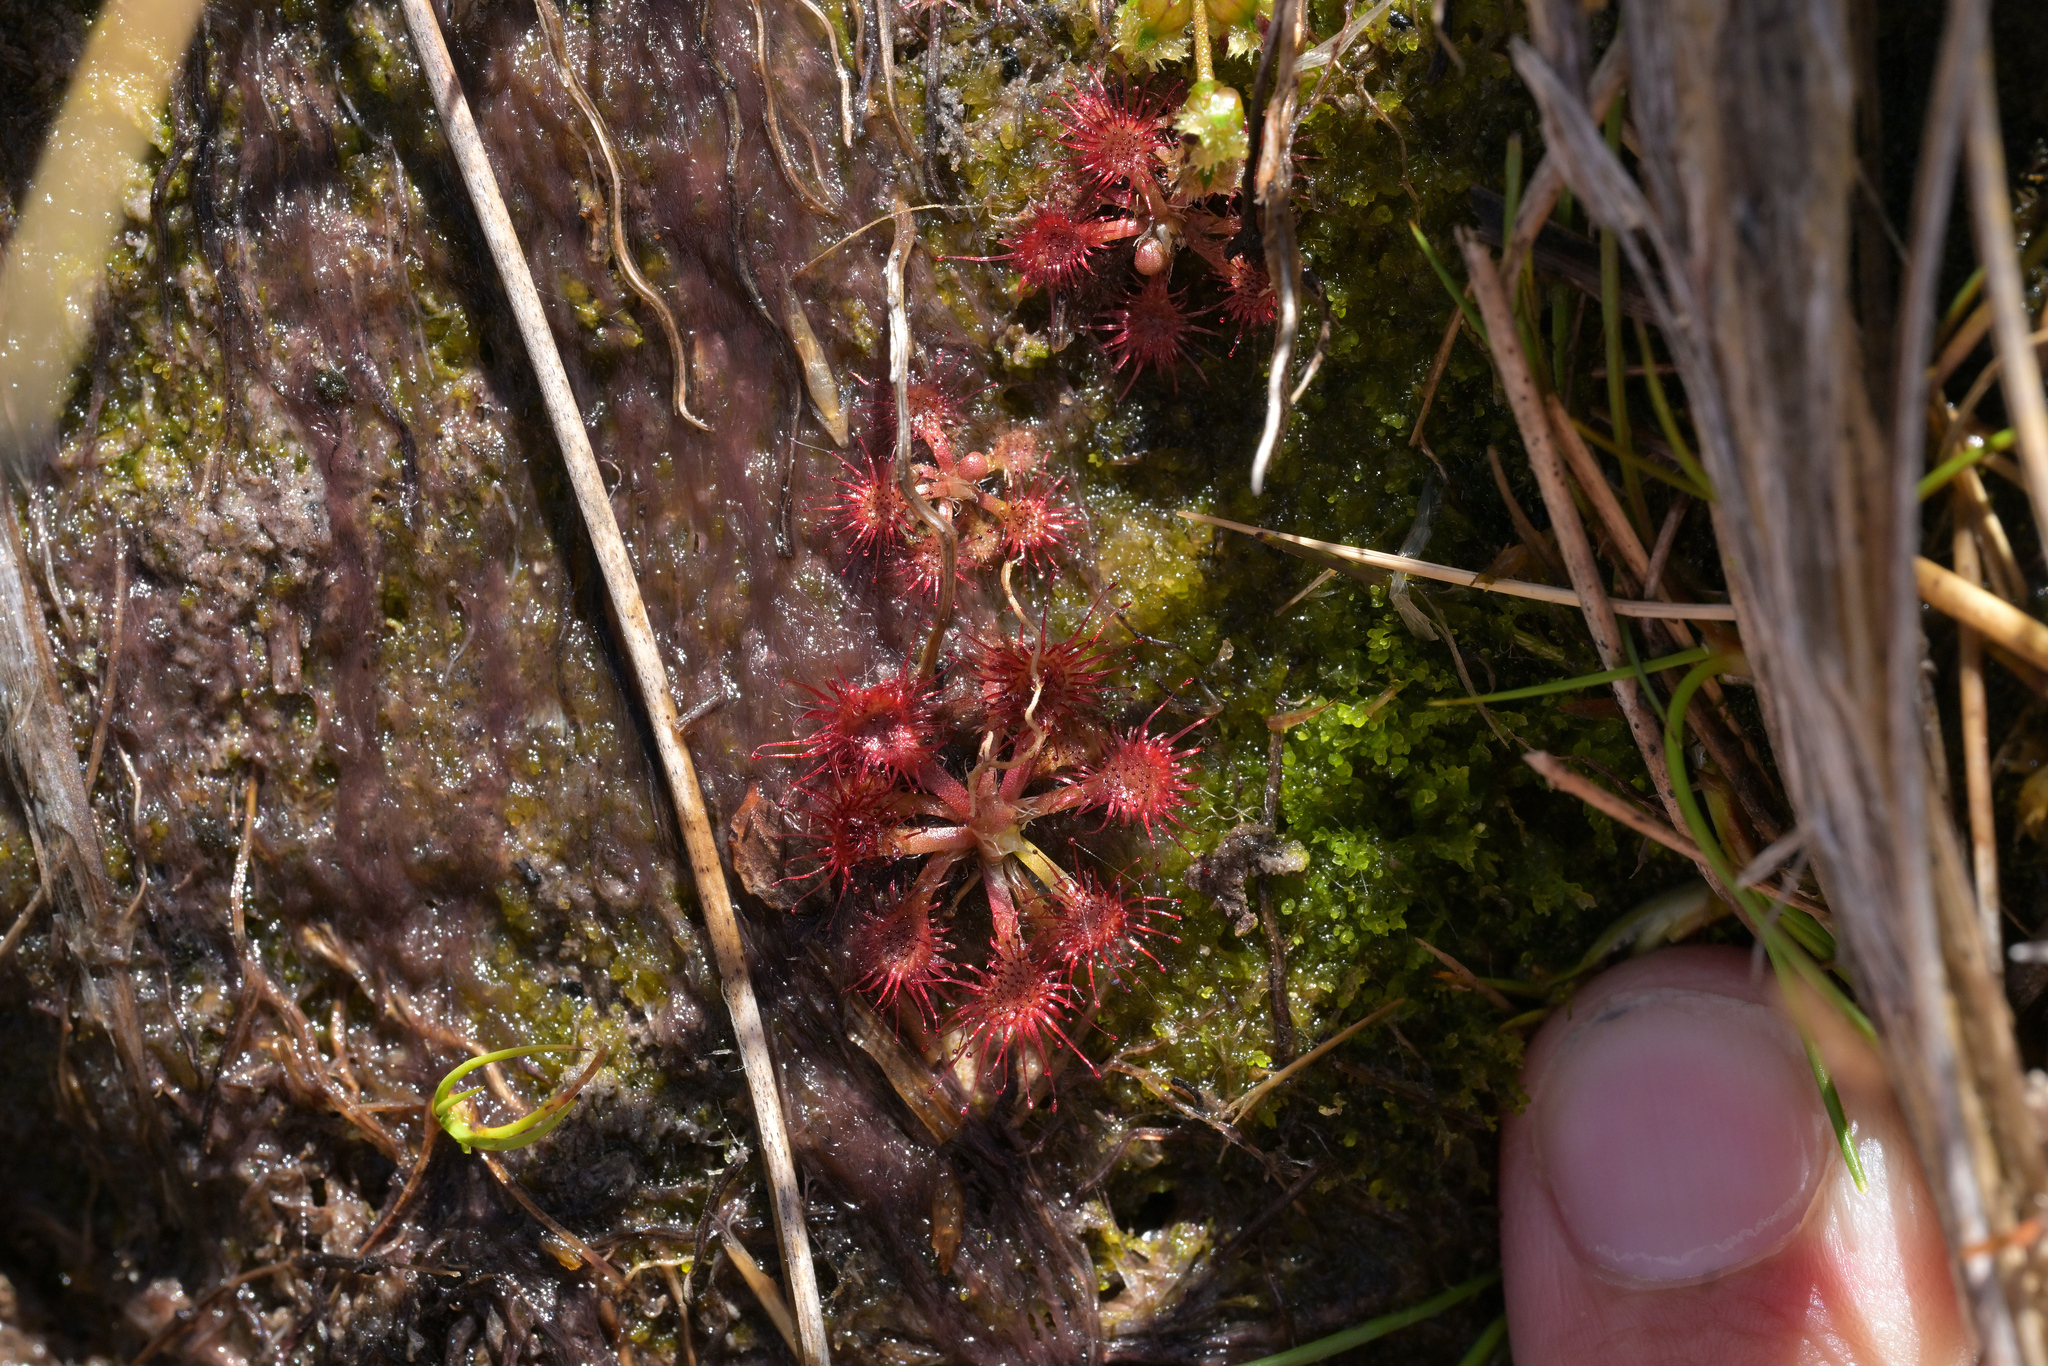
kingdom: Plantae
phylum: Tracheophyta
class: Magnoliopsida
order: Caryophyllales
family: Droseraceae
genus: Drosera
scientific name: Drosera spatulata
